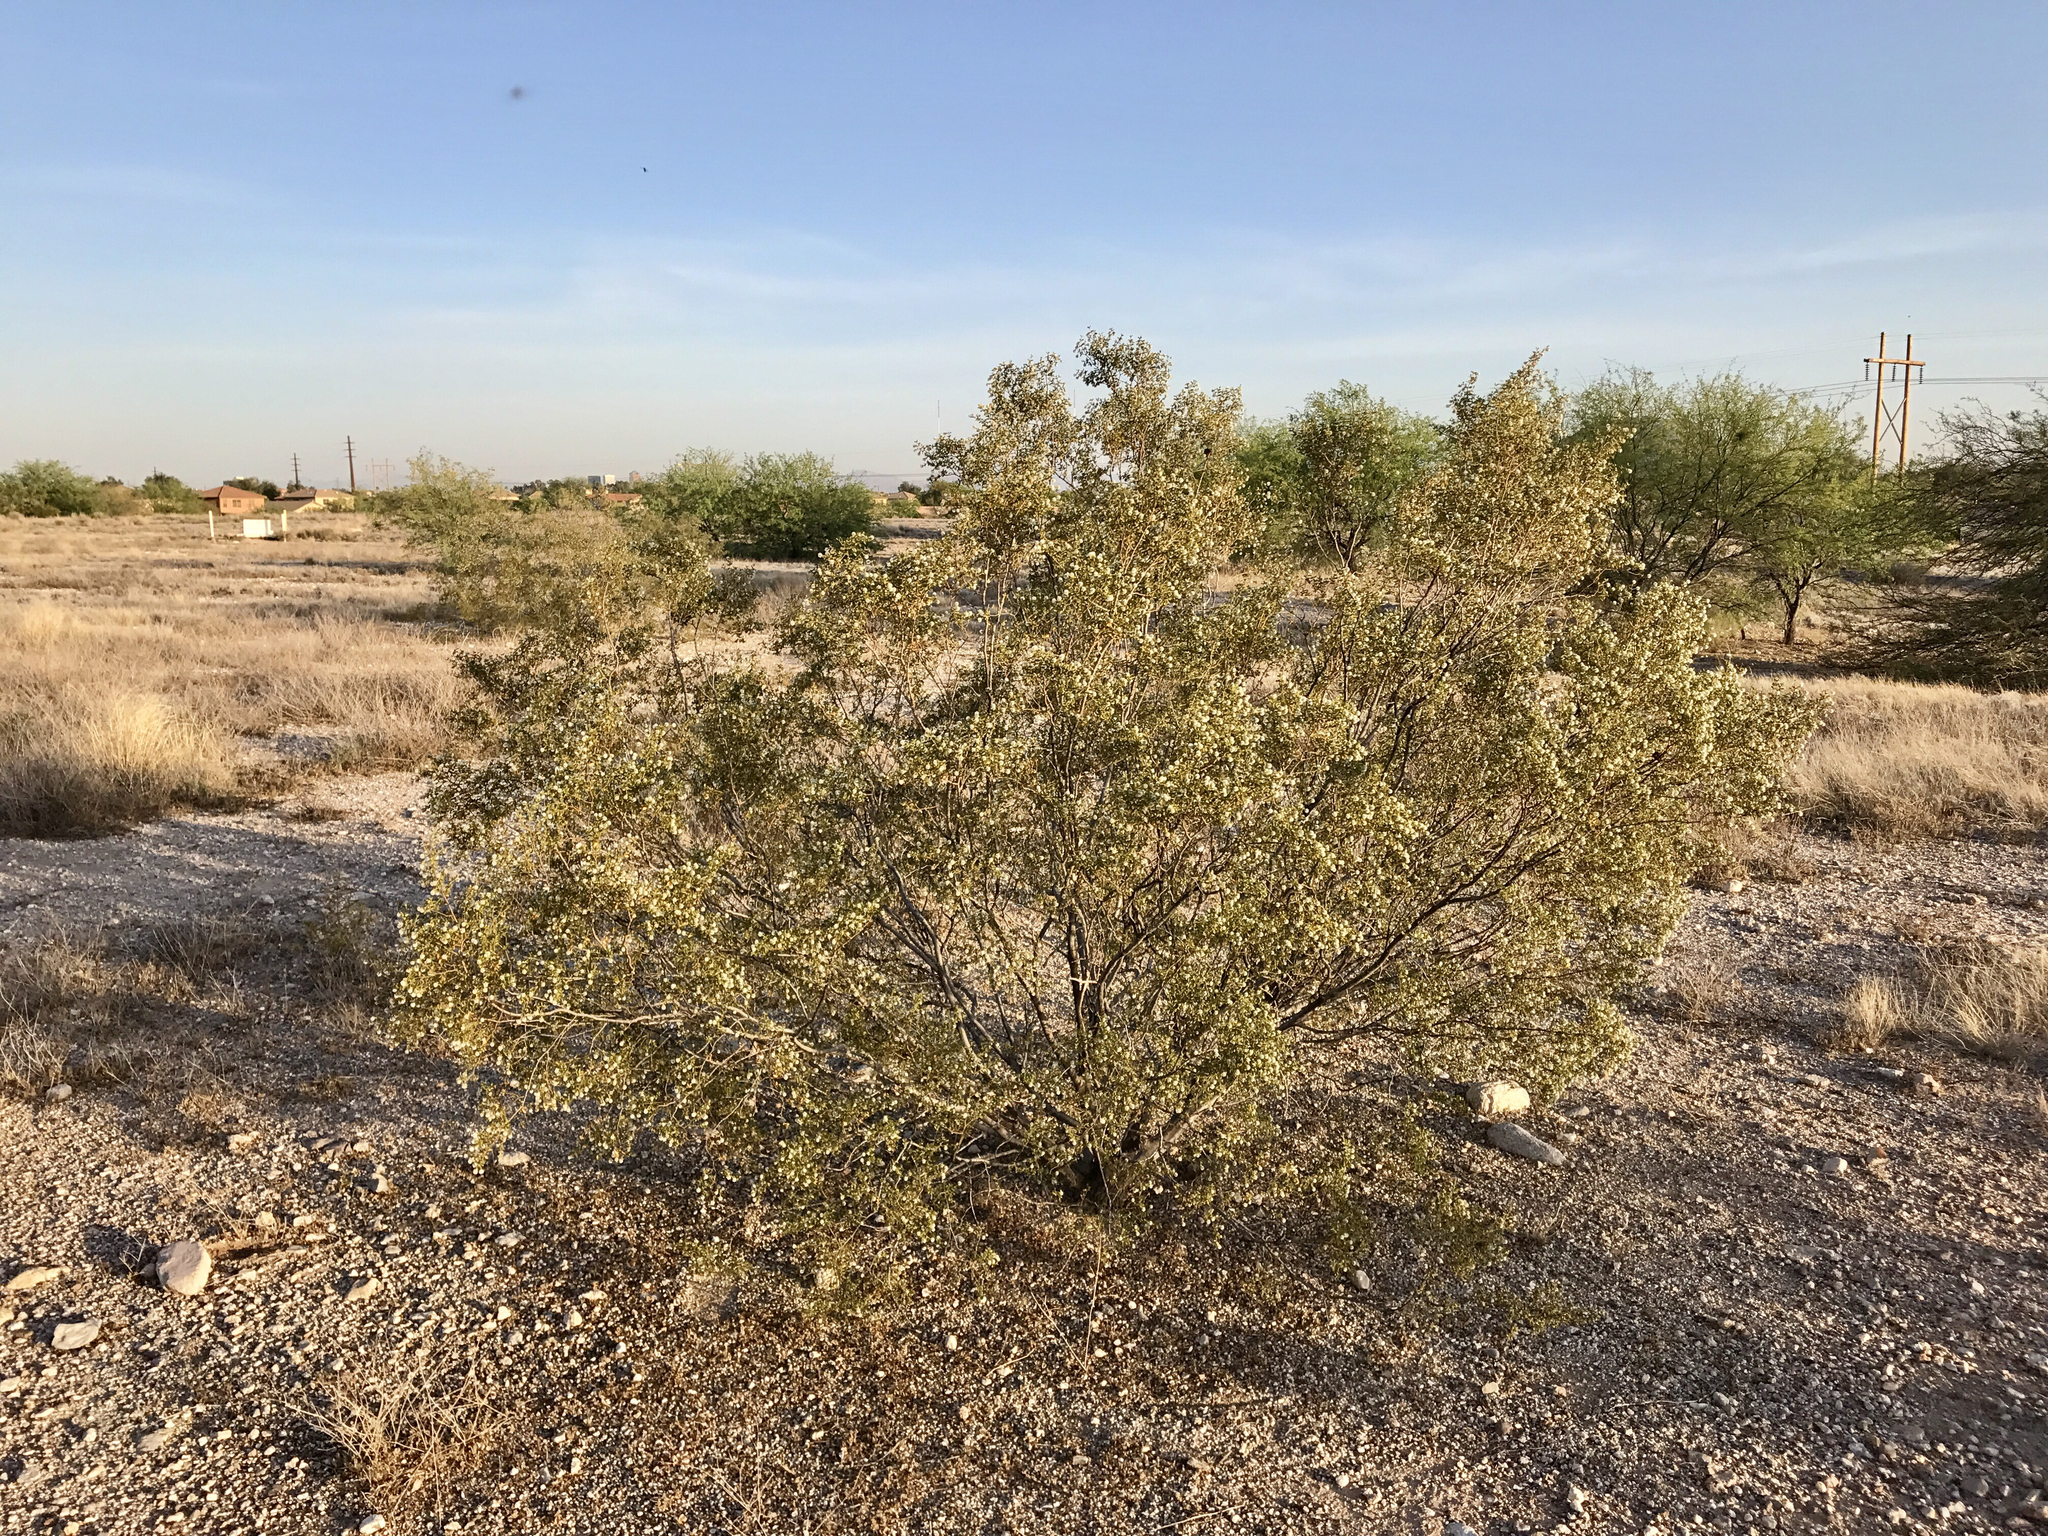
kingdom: Plantae
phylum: Tracheophyta
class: Magnoliopsida
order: Zygophyllales
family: Zygophyllaceae
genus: Larrea
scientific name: Larrea tridentata
